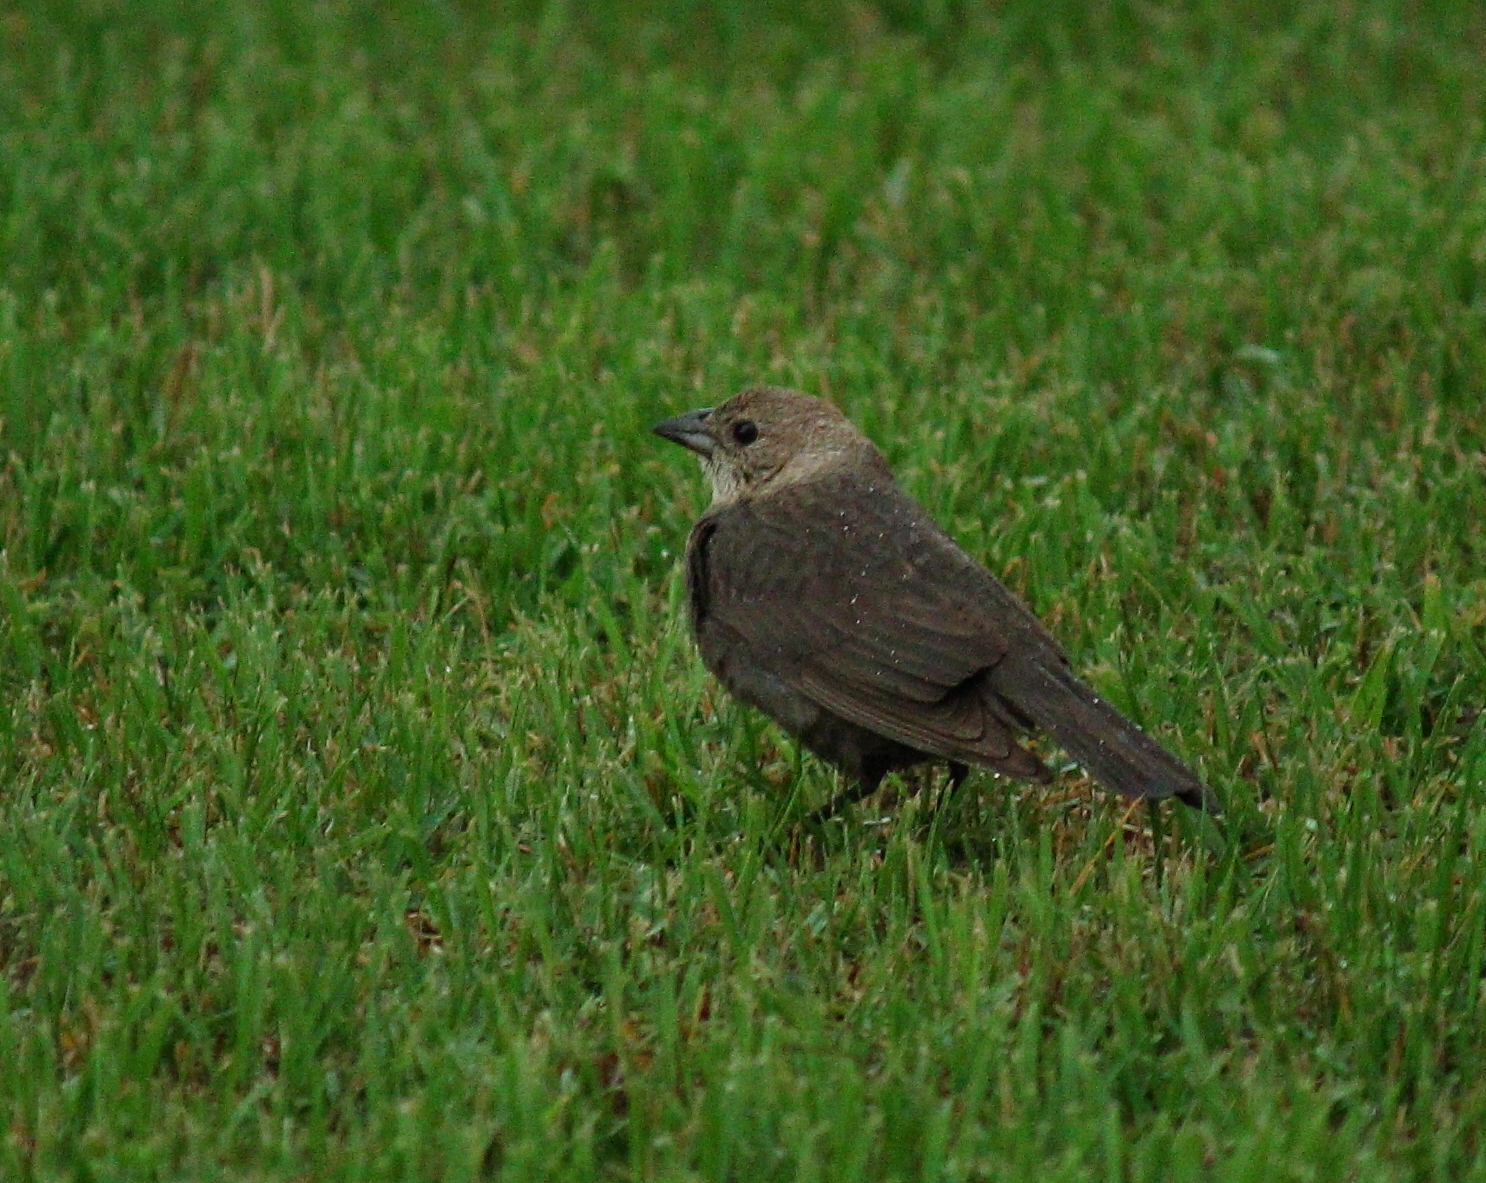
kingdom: Animalia
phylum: Chordata
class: Aves
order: Passeriformes
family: Icteridae
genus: Molothrus
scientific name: Molothrus ater
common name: Brown-headed cowbird
